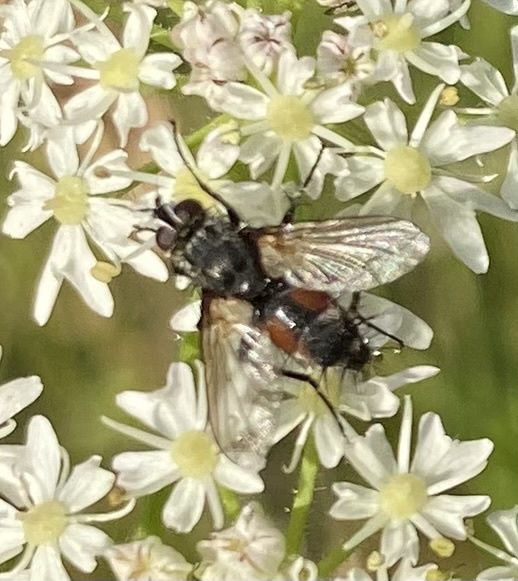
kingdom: Animalia
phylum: Arthropoda
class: Insecta
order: Diptera
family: Tachinidae
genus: Eriothrix
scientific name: Eriothrix rufomaculatus
